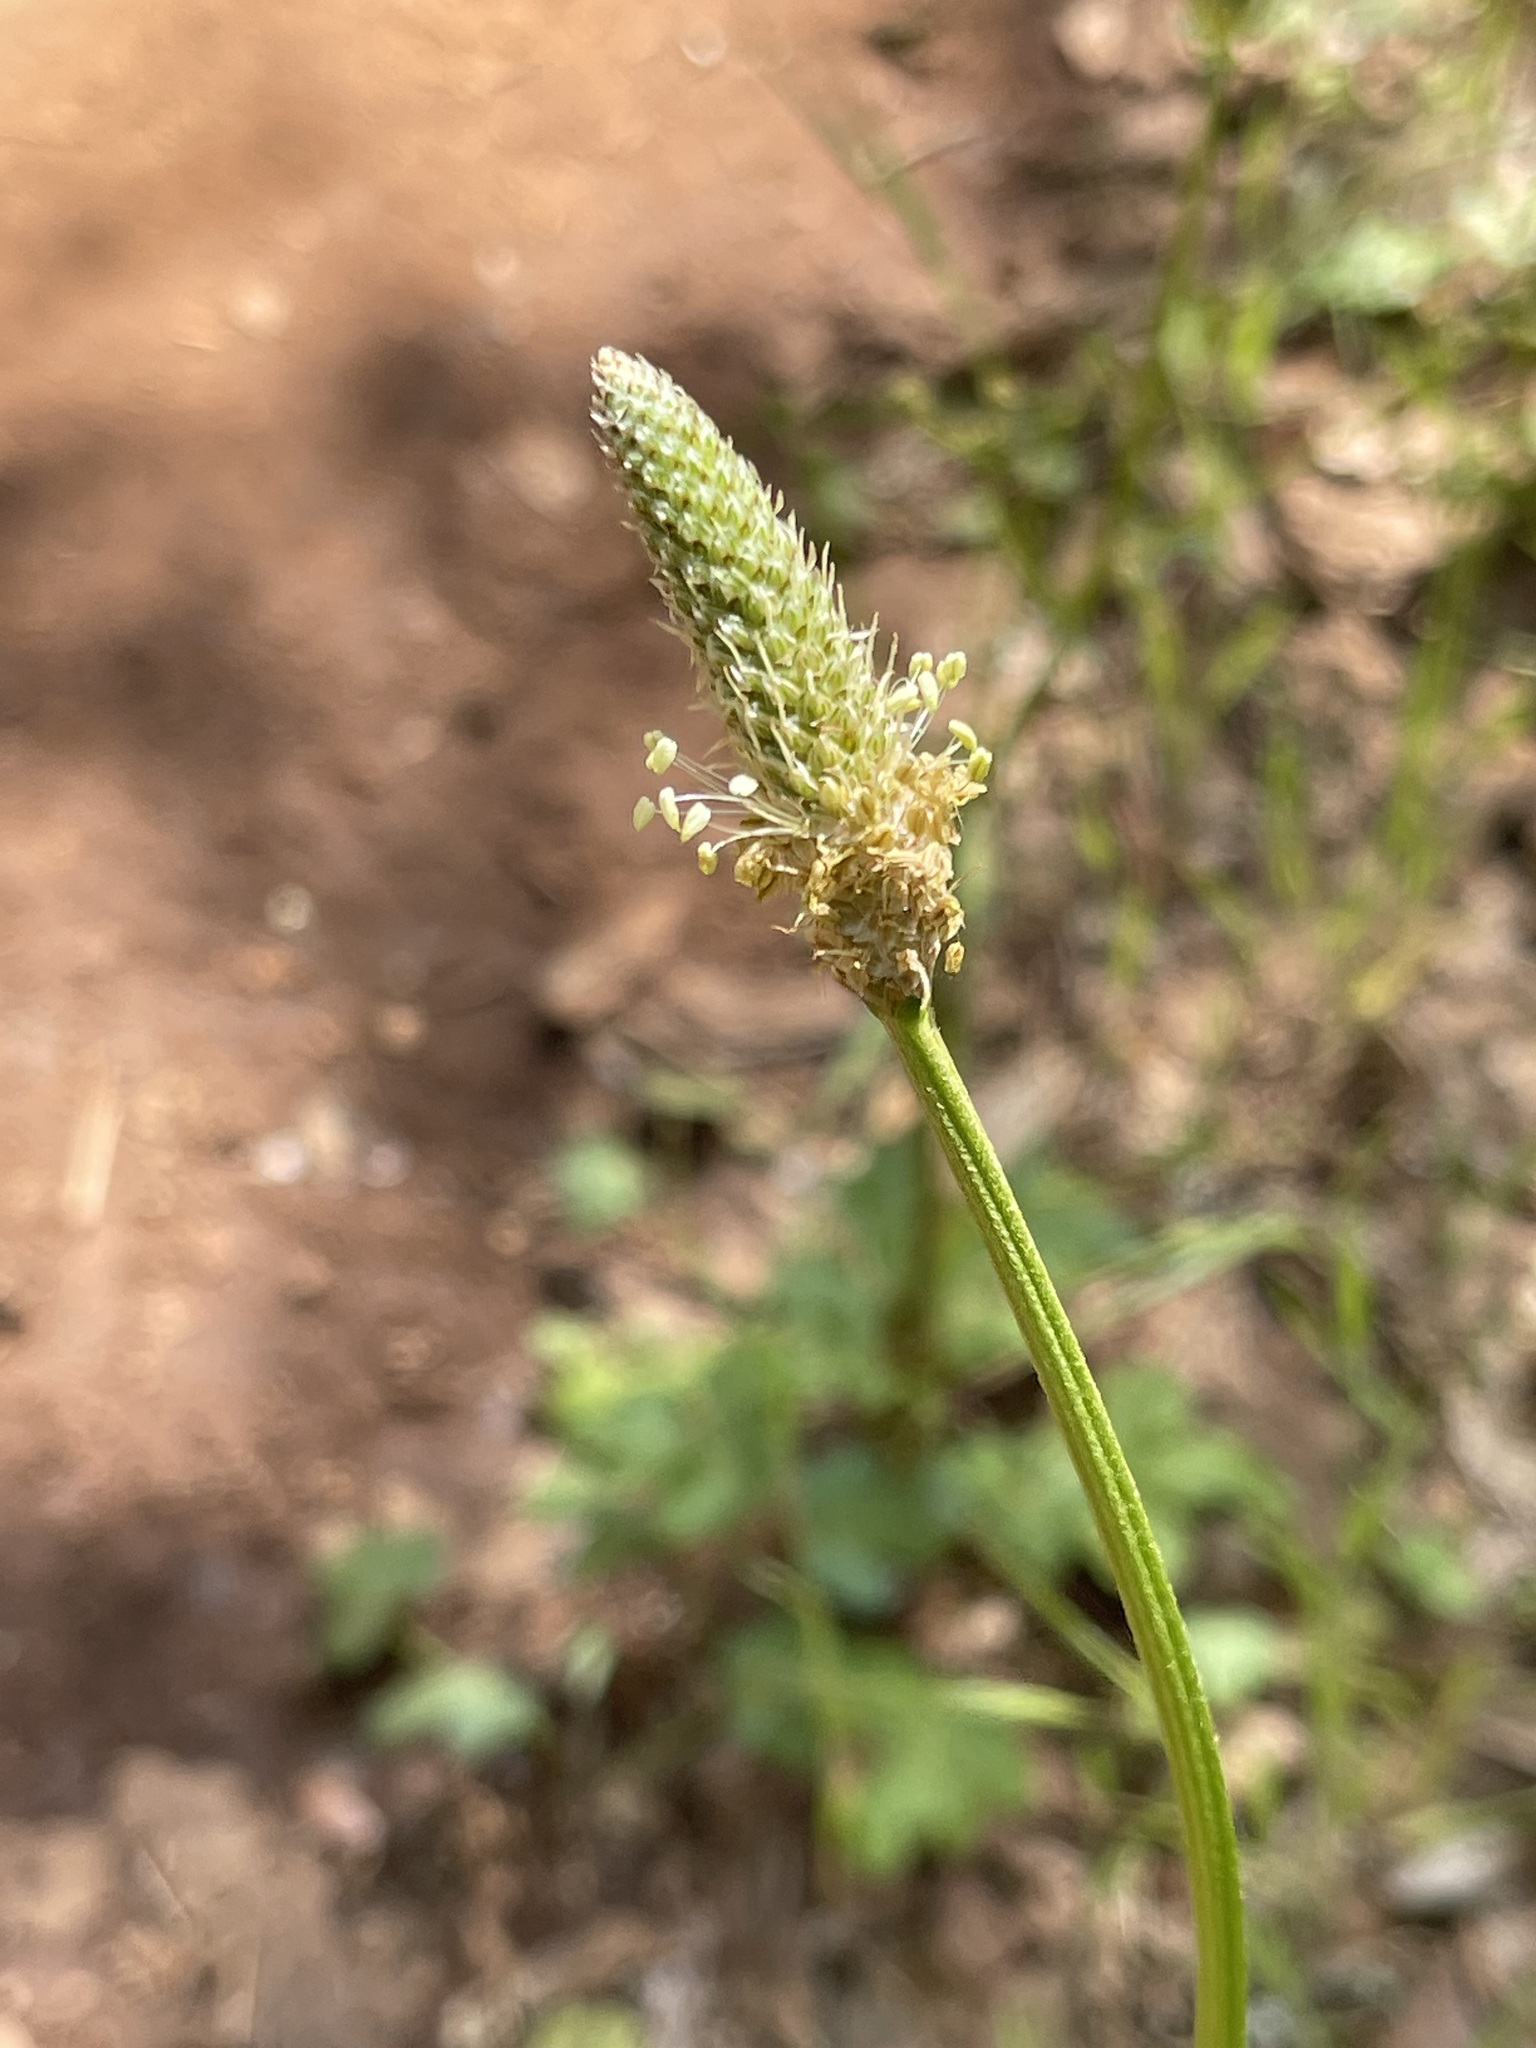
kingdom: Plantae
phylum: Tracheophyta
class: Magnoliopsida
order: Lamiales
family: Plantaginaceae
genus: Plantago
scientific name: Plantago lanceolata
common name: Ribwort plantain
